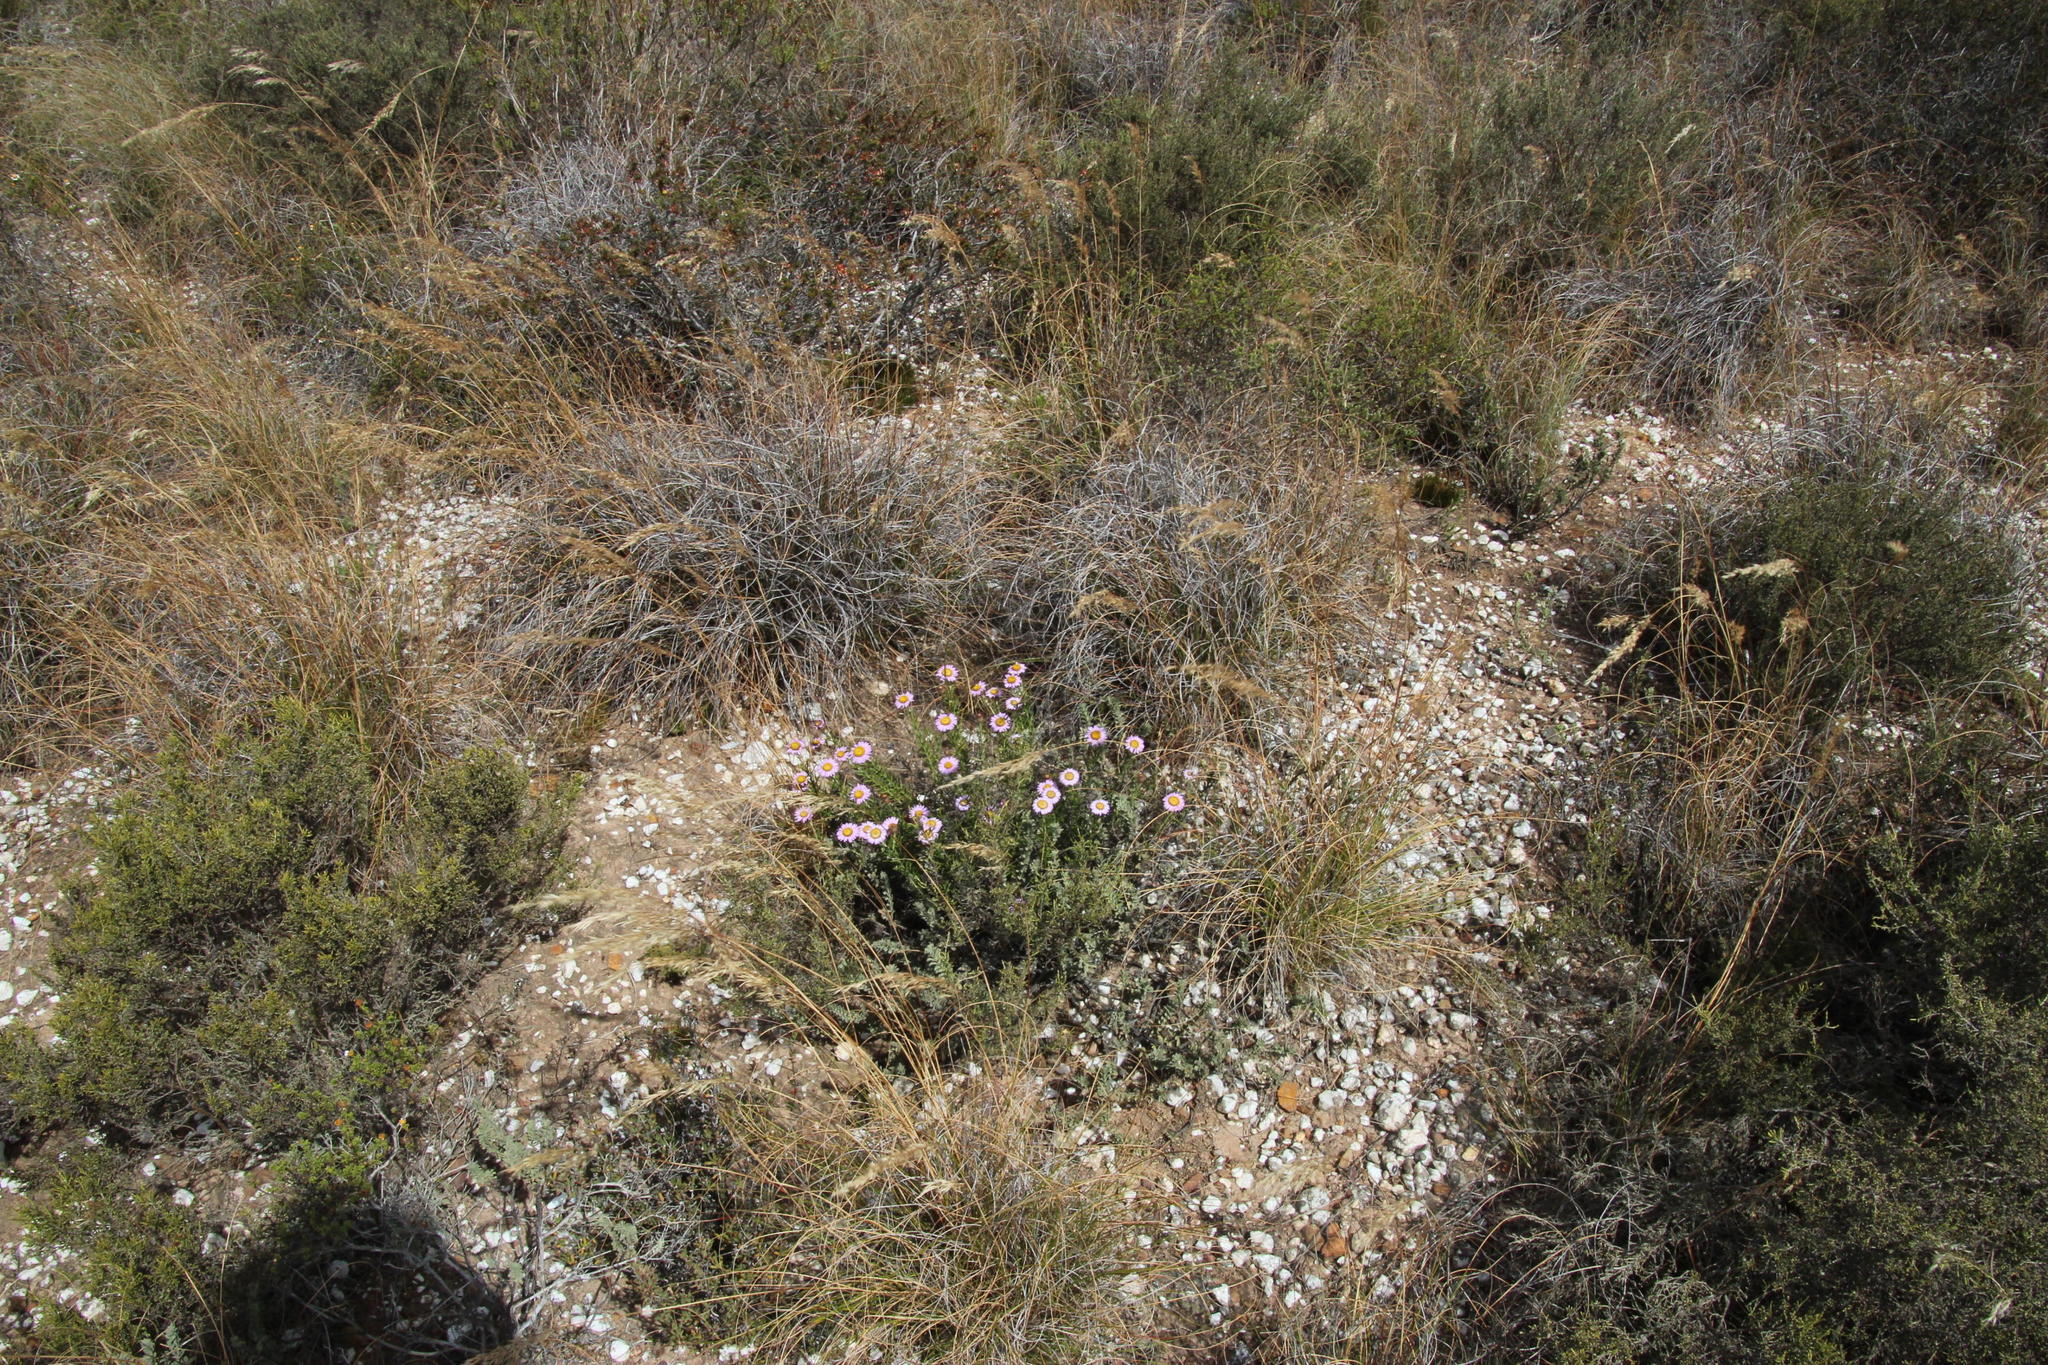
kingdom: Plantae
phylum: Tracheophyta
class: Magnoliopsida
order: Asterales
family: Asteraceae
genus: Athrixia
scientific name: Athrixia capensis
